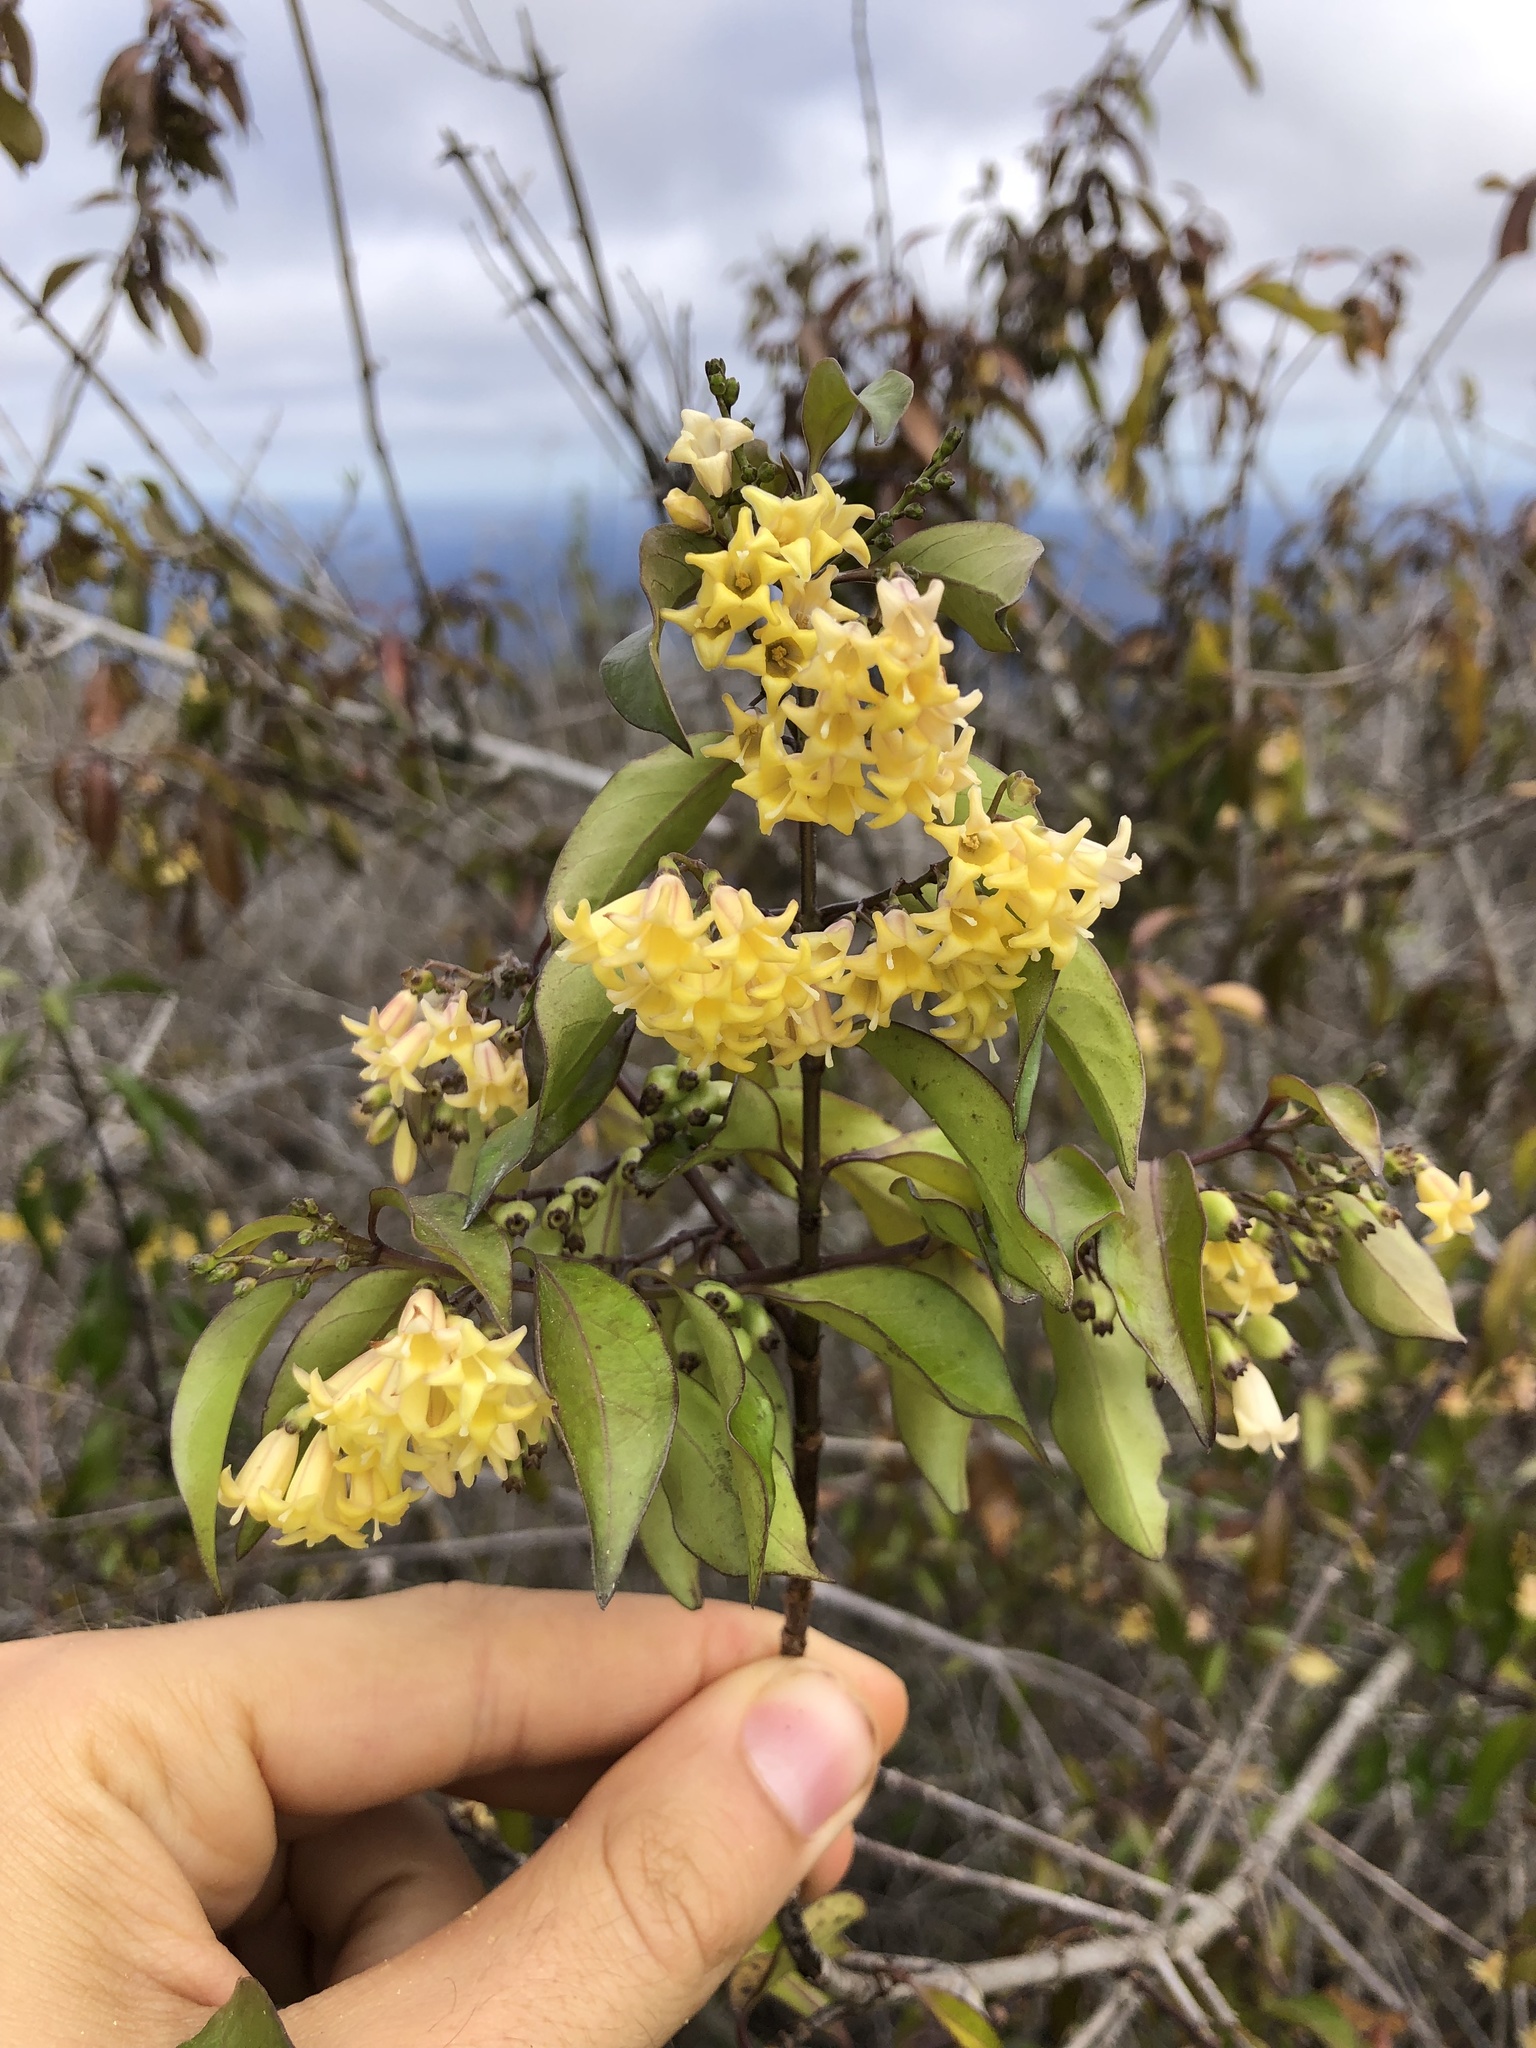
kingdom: Plantae
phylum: Tracheophyta
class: Magnoliopsida
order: Gentianales
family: Rubiaceae
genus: Chiococca
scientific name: Chiococca alba
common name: Snowberry
